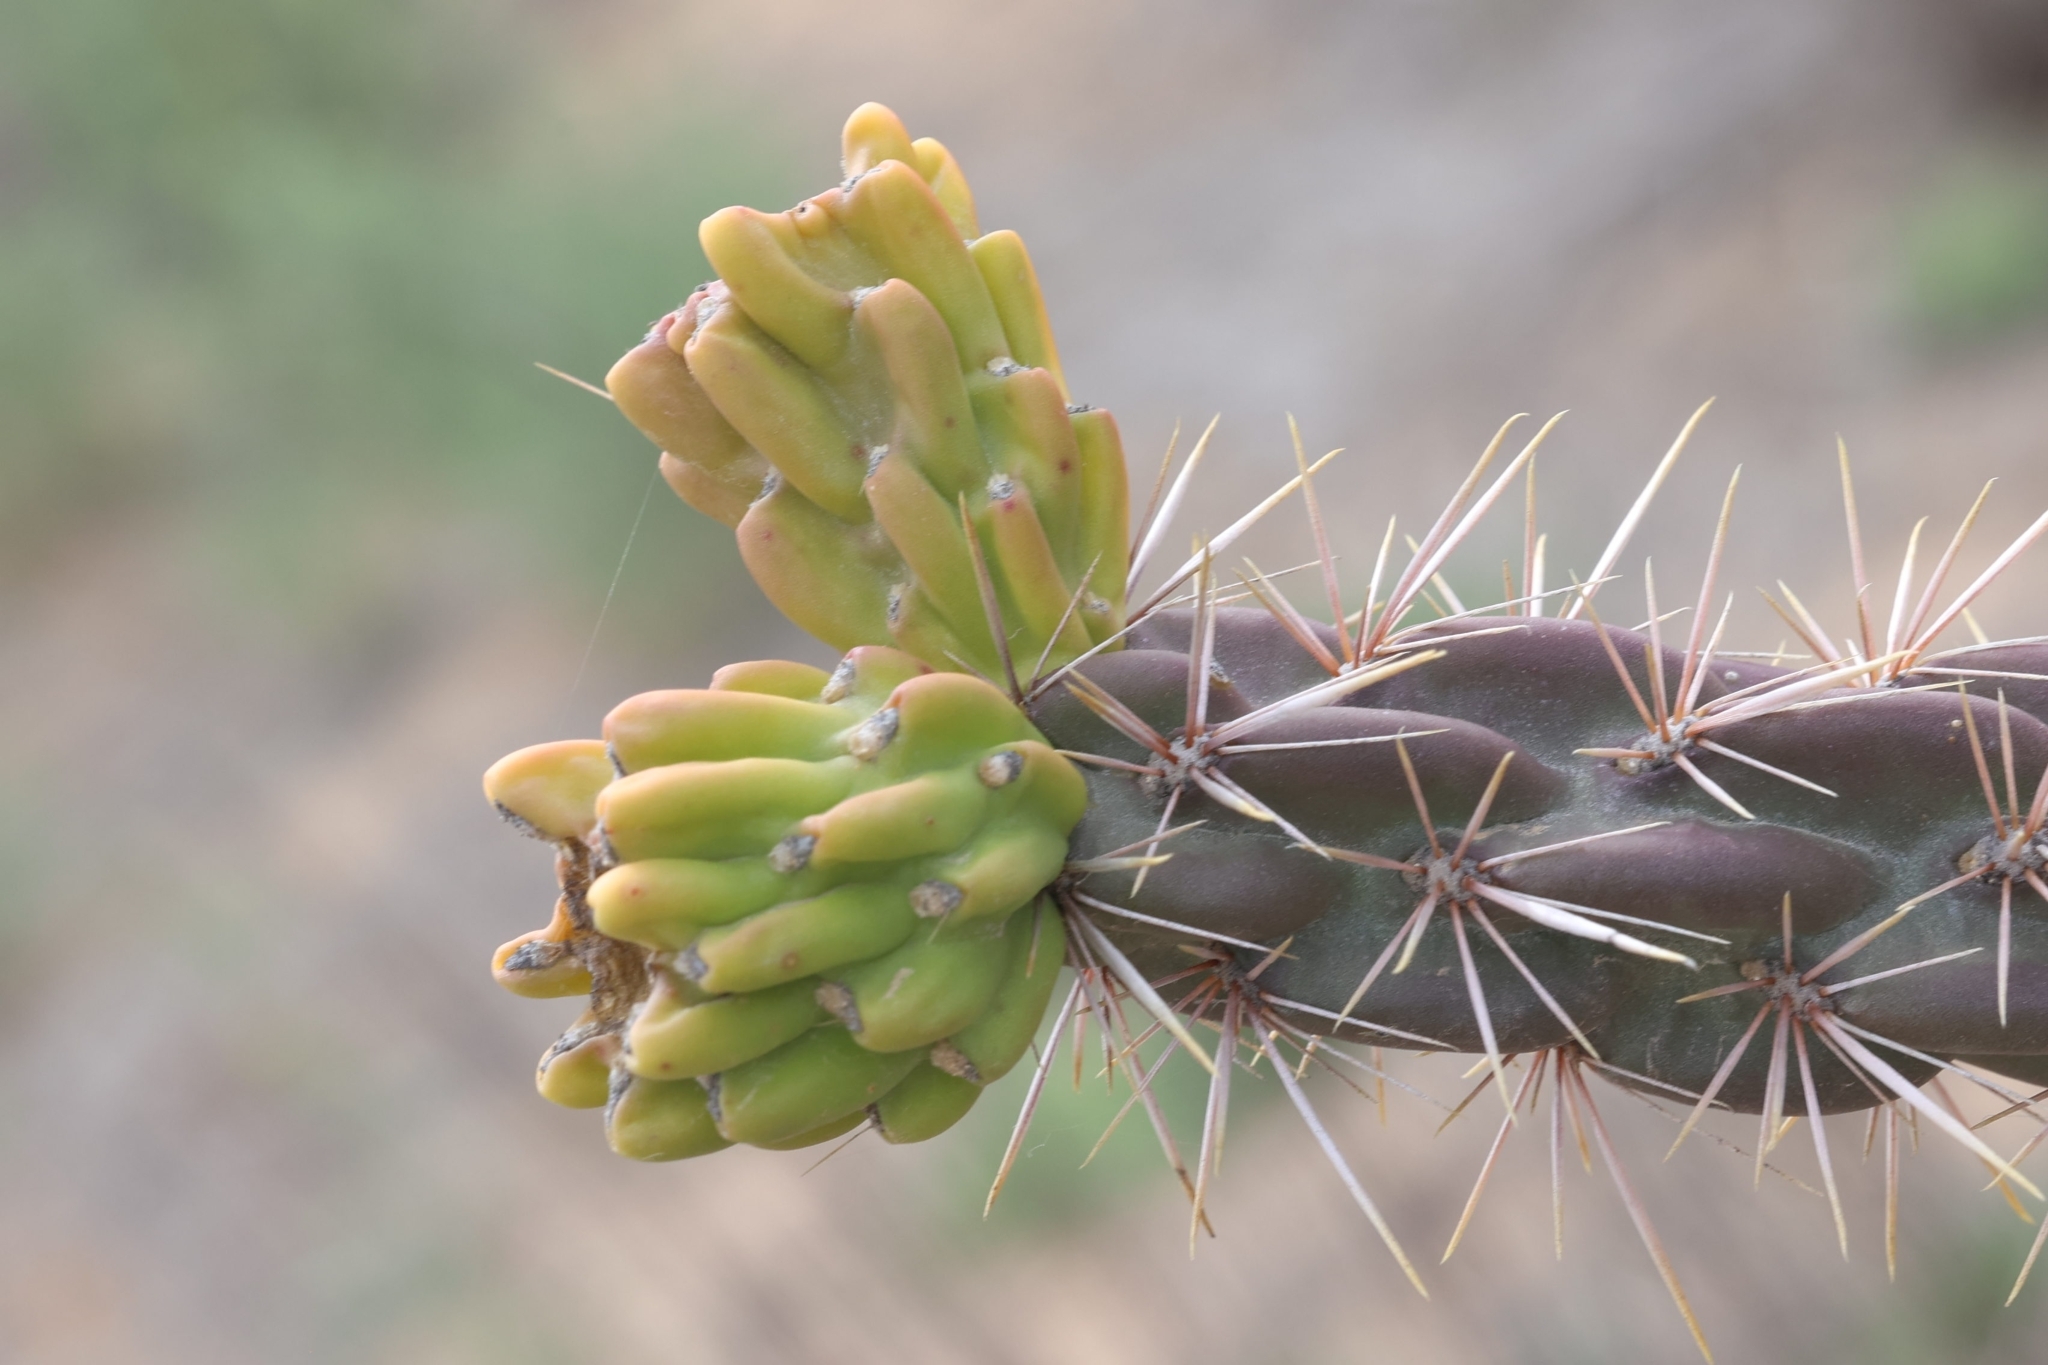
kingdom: Plantae
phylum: Tracheophyta
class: Magnoliopsida
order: Caryophyllales
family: Cactaceae
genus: Cylindropuntia
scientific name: Cylindropuntia imbricata
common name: Candelabrum cactus
